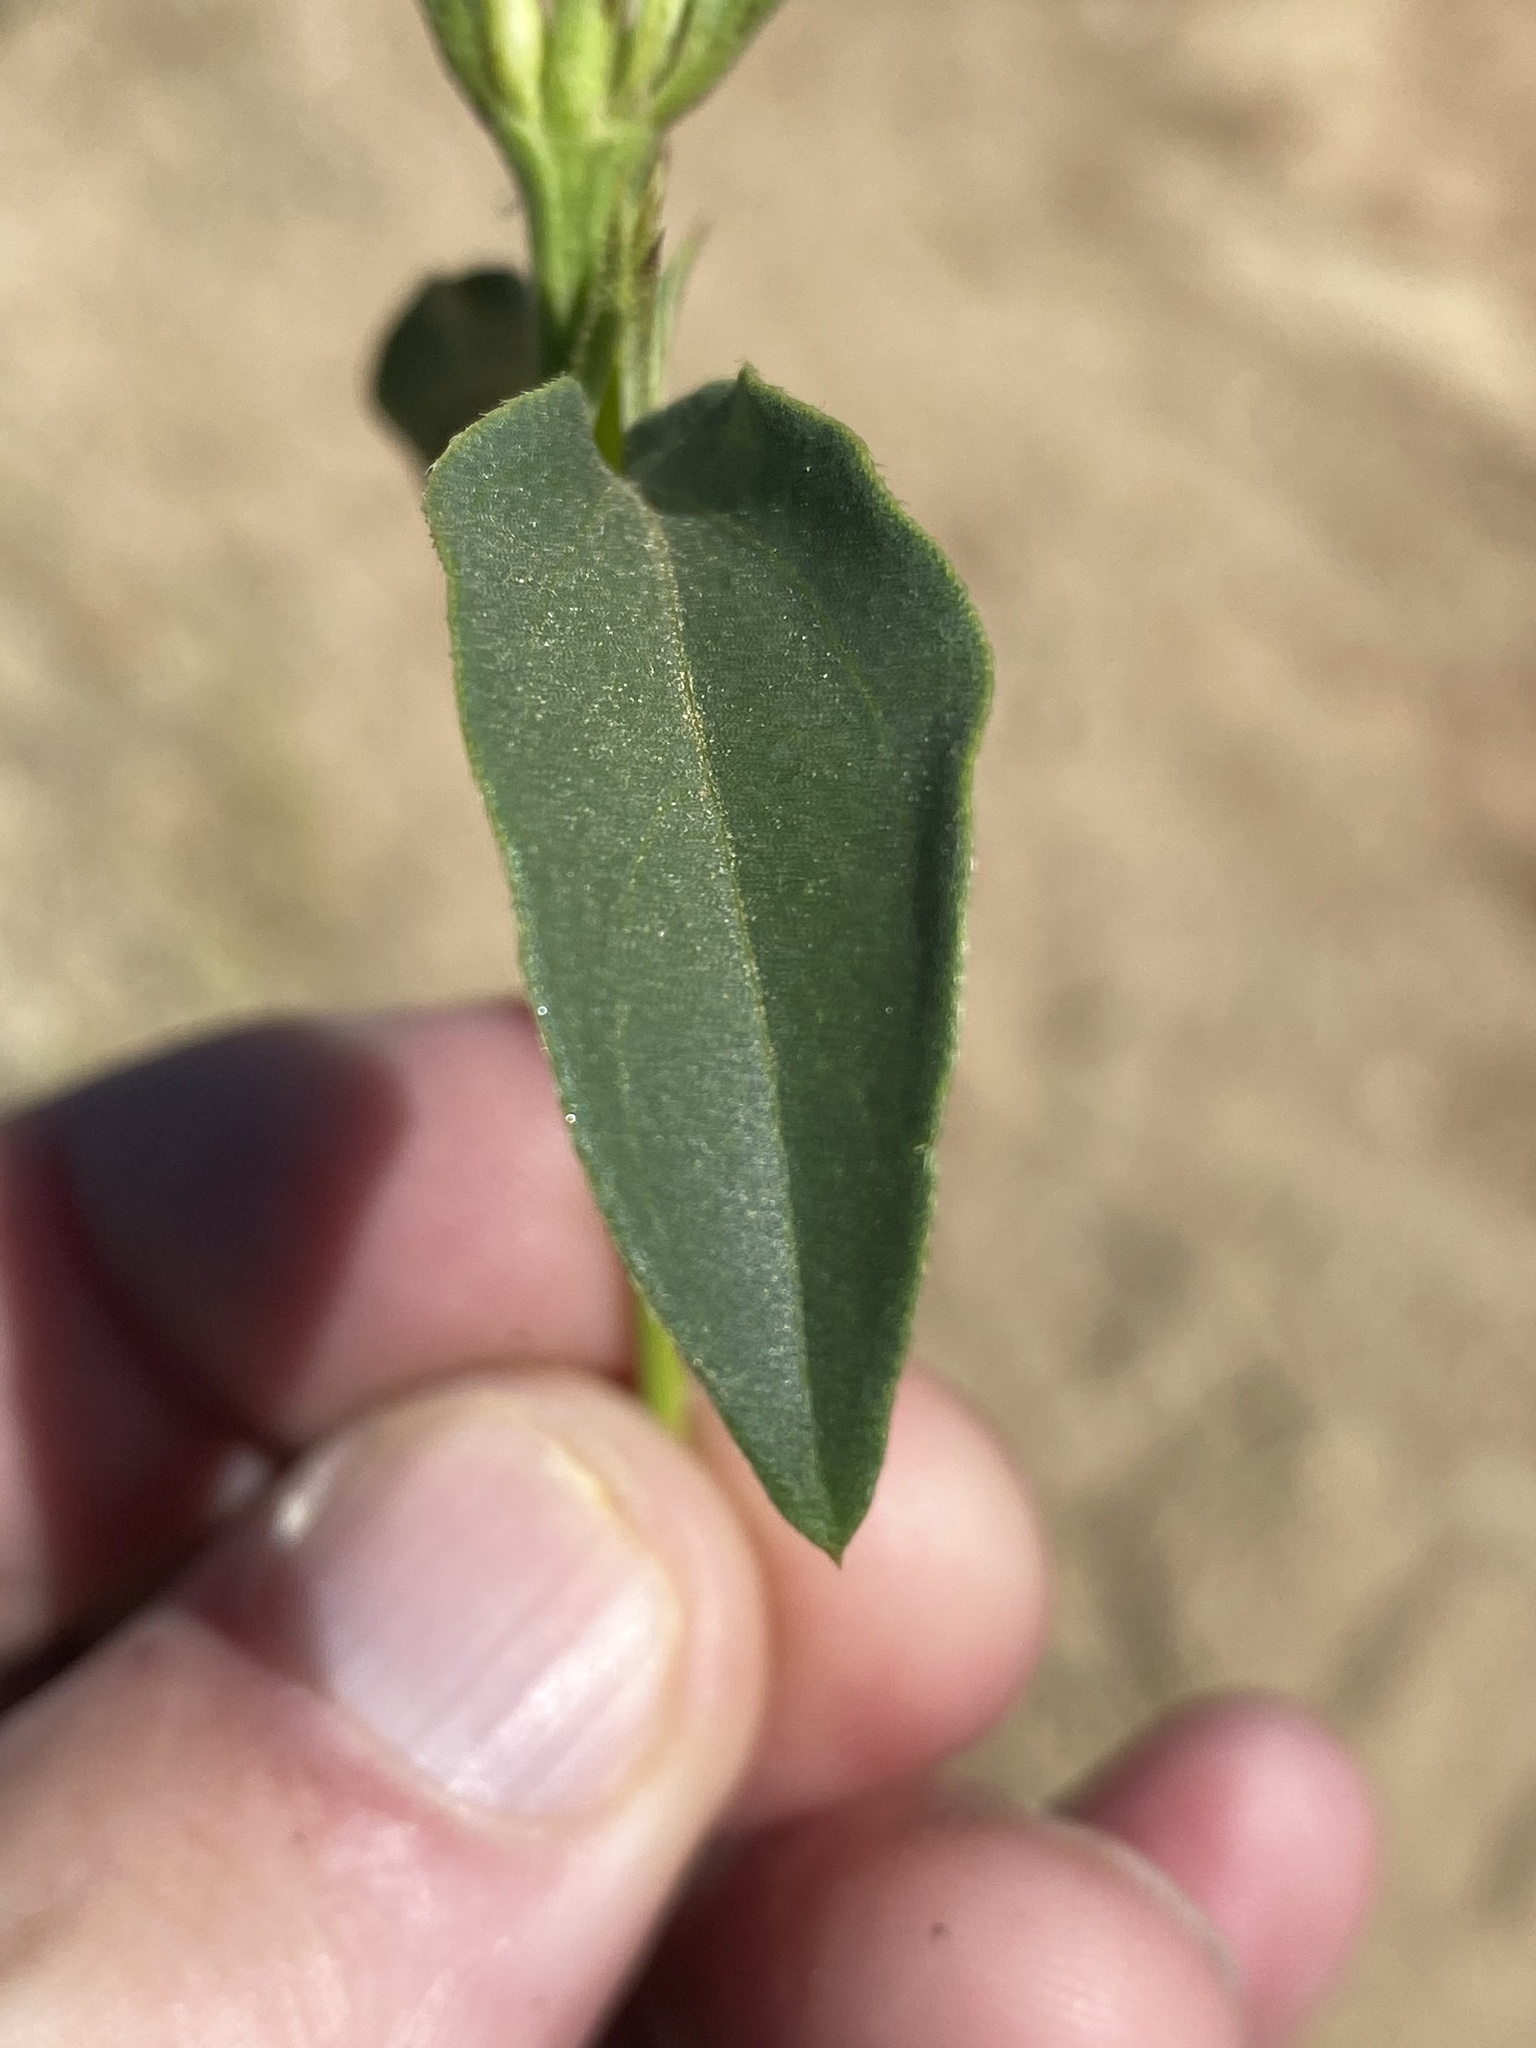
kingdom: Plantae
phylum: Tracheophyta
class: Magnoliopsida
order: Lamiales
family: Acanthaceae
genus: Barleria
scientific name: Barleria senensis
